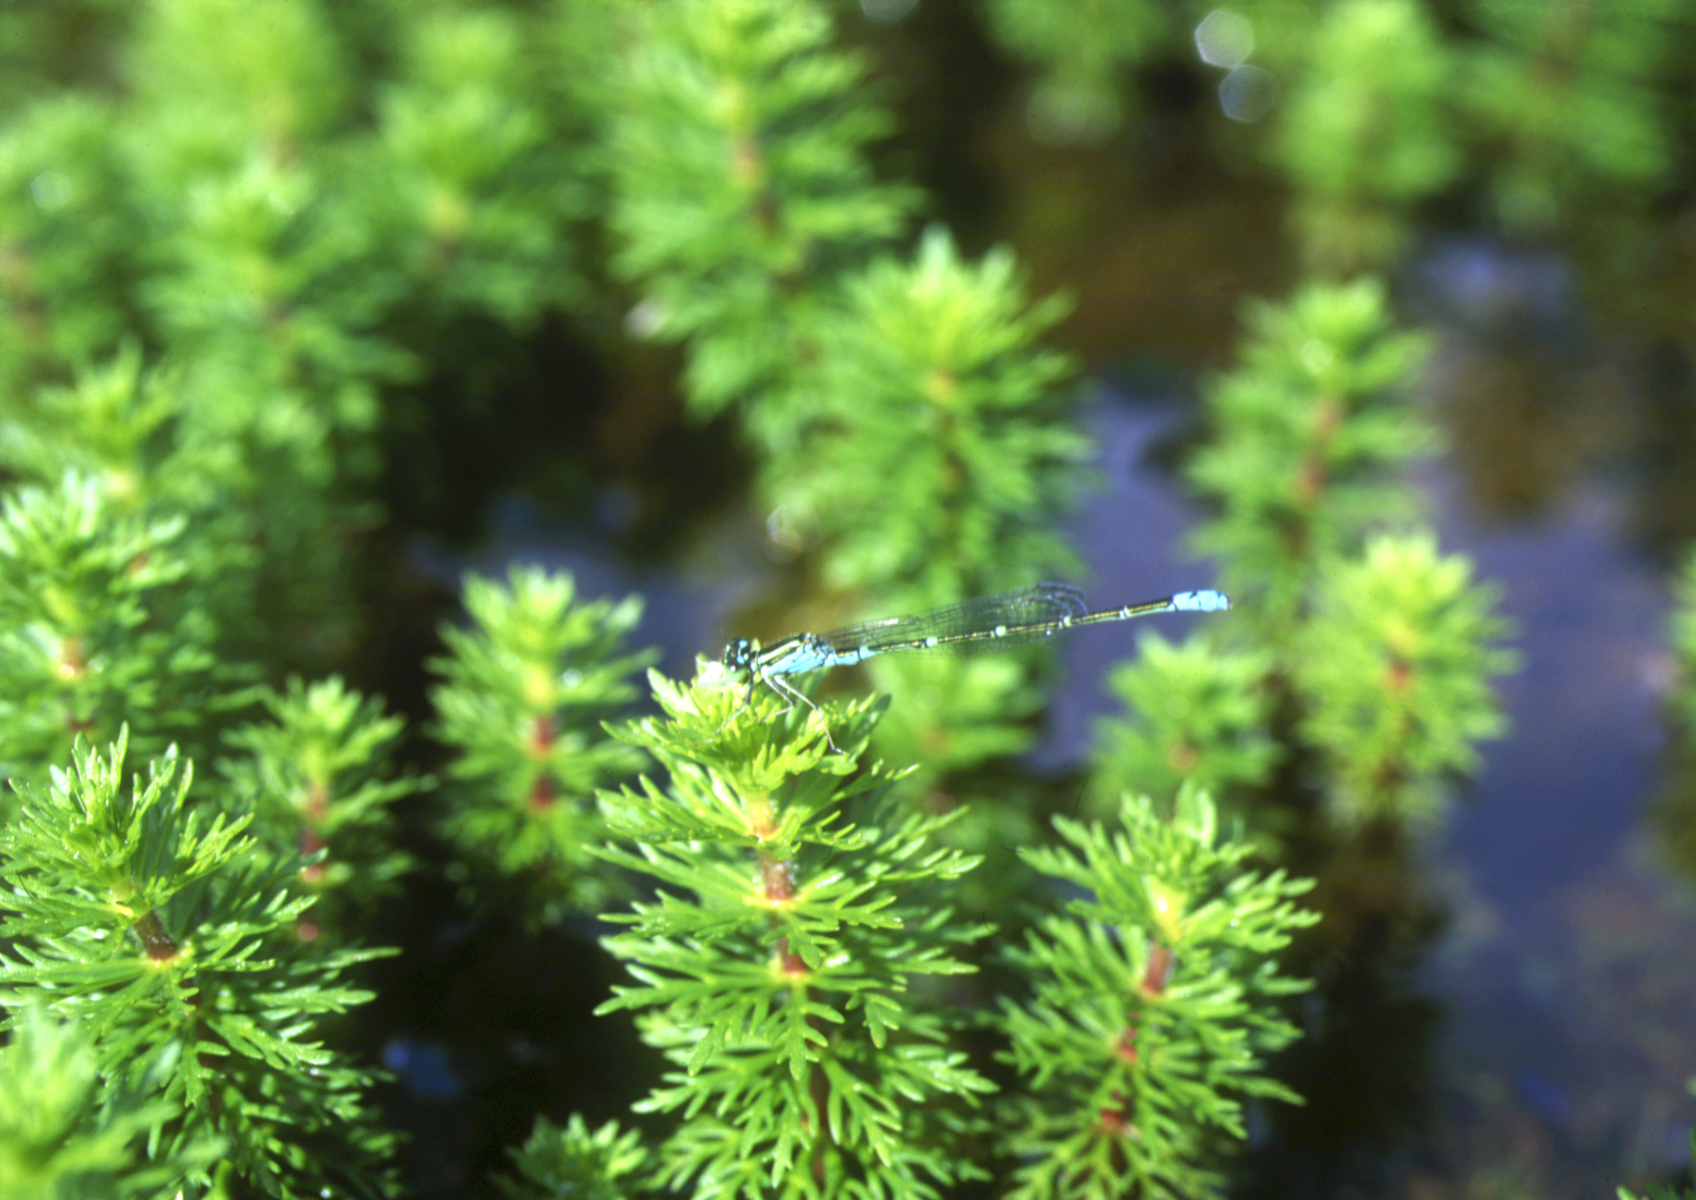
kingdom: Animalia
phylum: Arthropoda
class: Insecta
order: Odonata
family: Coenagrionidae
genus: Paracercion
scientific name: Paracercion sieboldii
